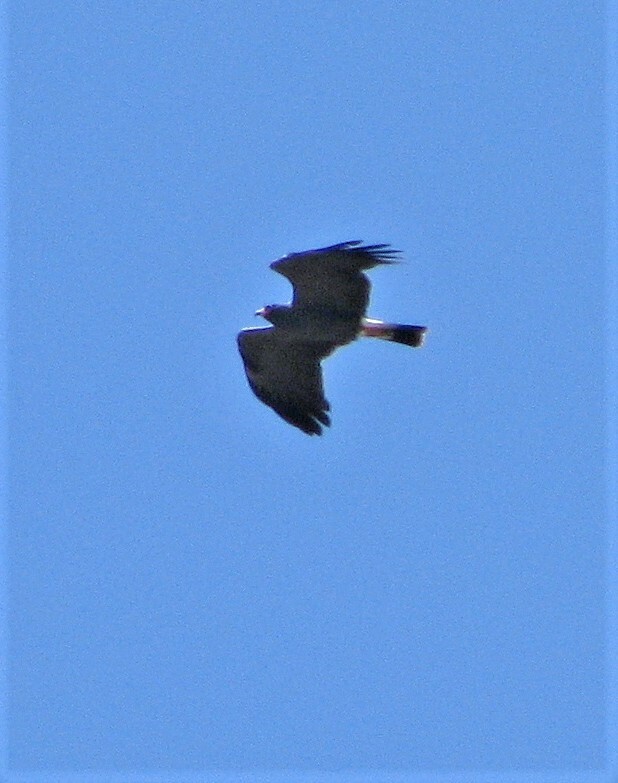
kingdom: Animalia
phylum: Chordata
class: Aves
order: Accipitriformes
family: Accipitridae
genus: Rostrhamus
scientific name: Rostrhamus sociabilis
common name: Snail kite
